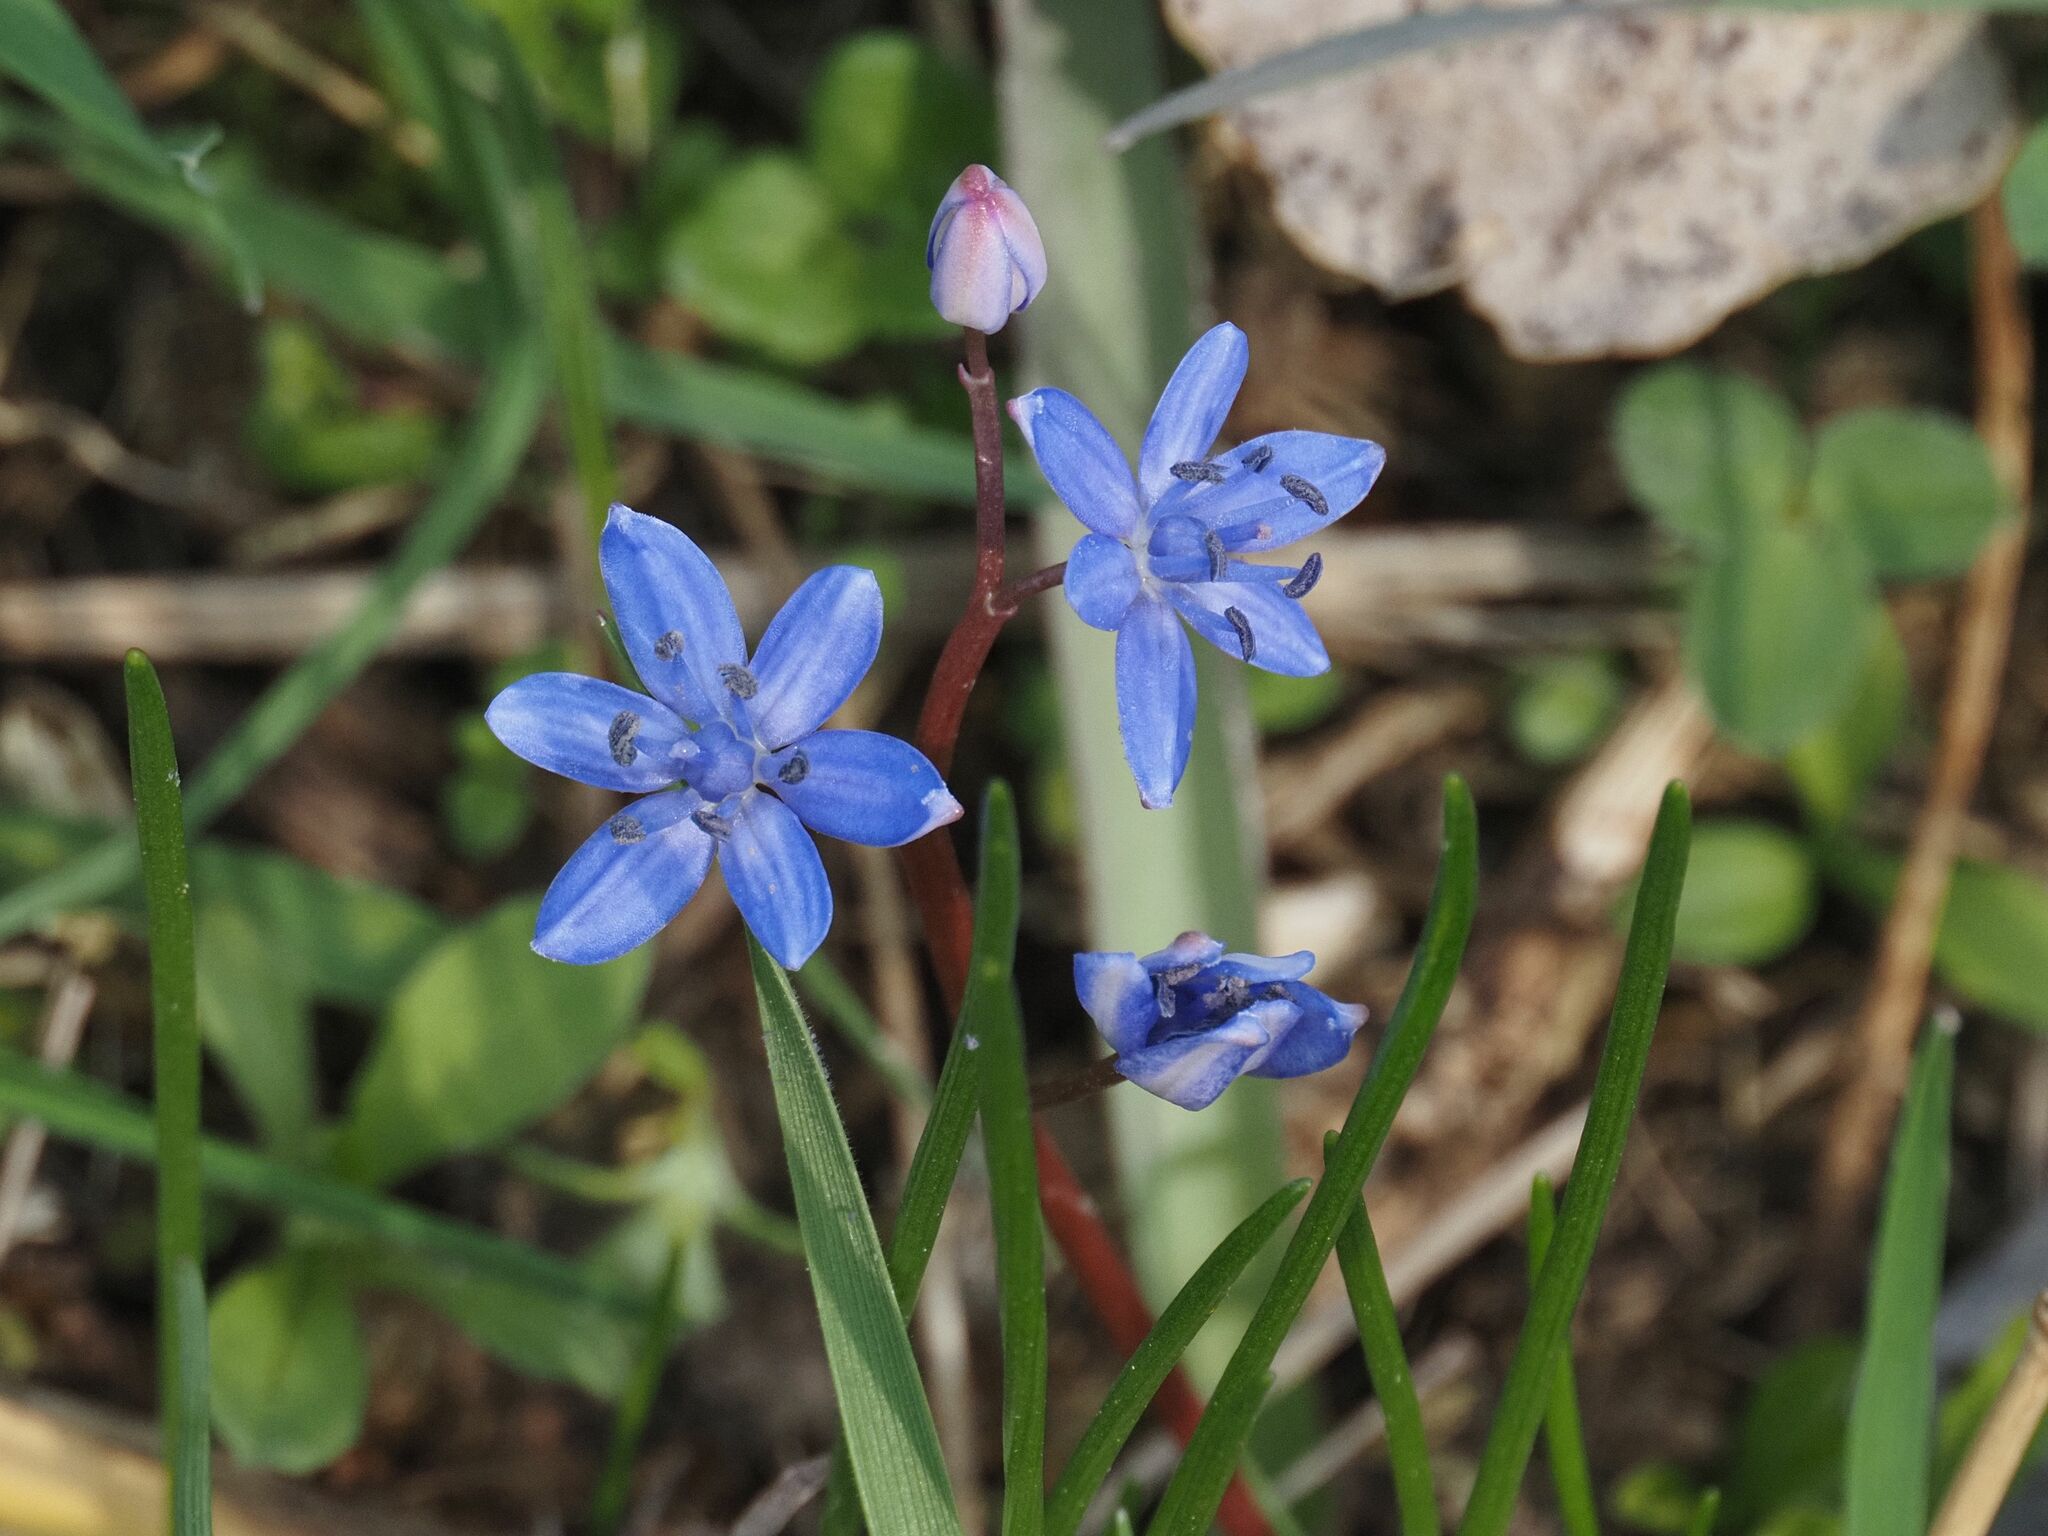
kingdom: Plantae
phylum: Tracheophyta
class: Liliopsida
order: Asparagales
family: Asparagaceae
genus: Scilla
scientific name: Scilla vindobonensis
